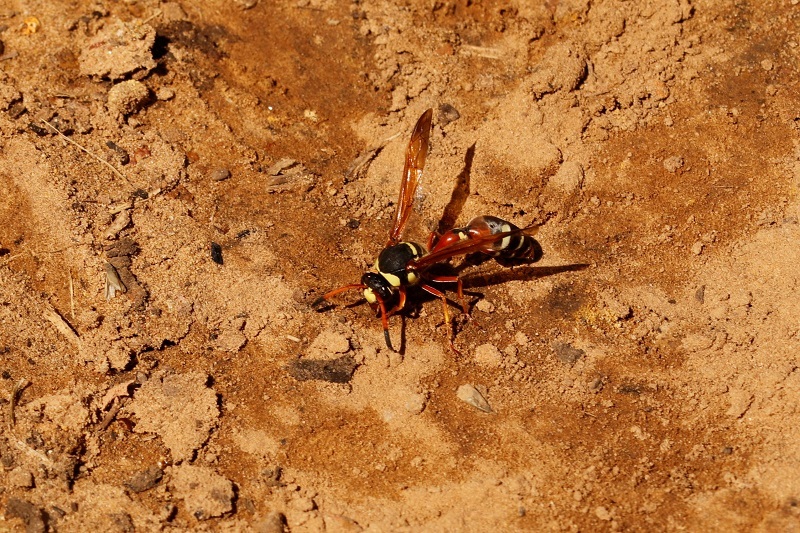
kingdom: Animalia
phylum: Arthropoda
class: Insecta
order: Hymenoptera
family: Eumenidae
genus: Delta
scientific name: Delta pulcherrimum
